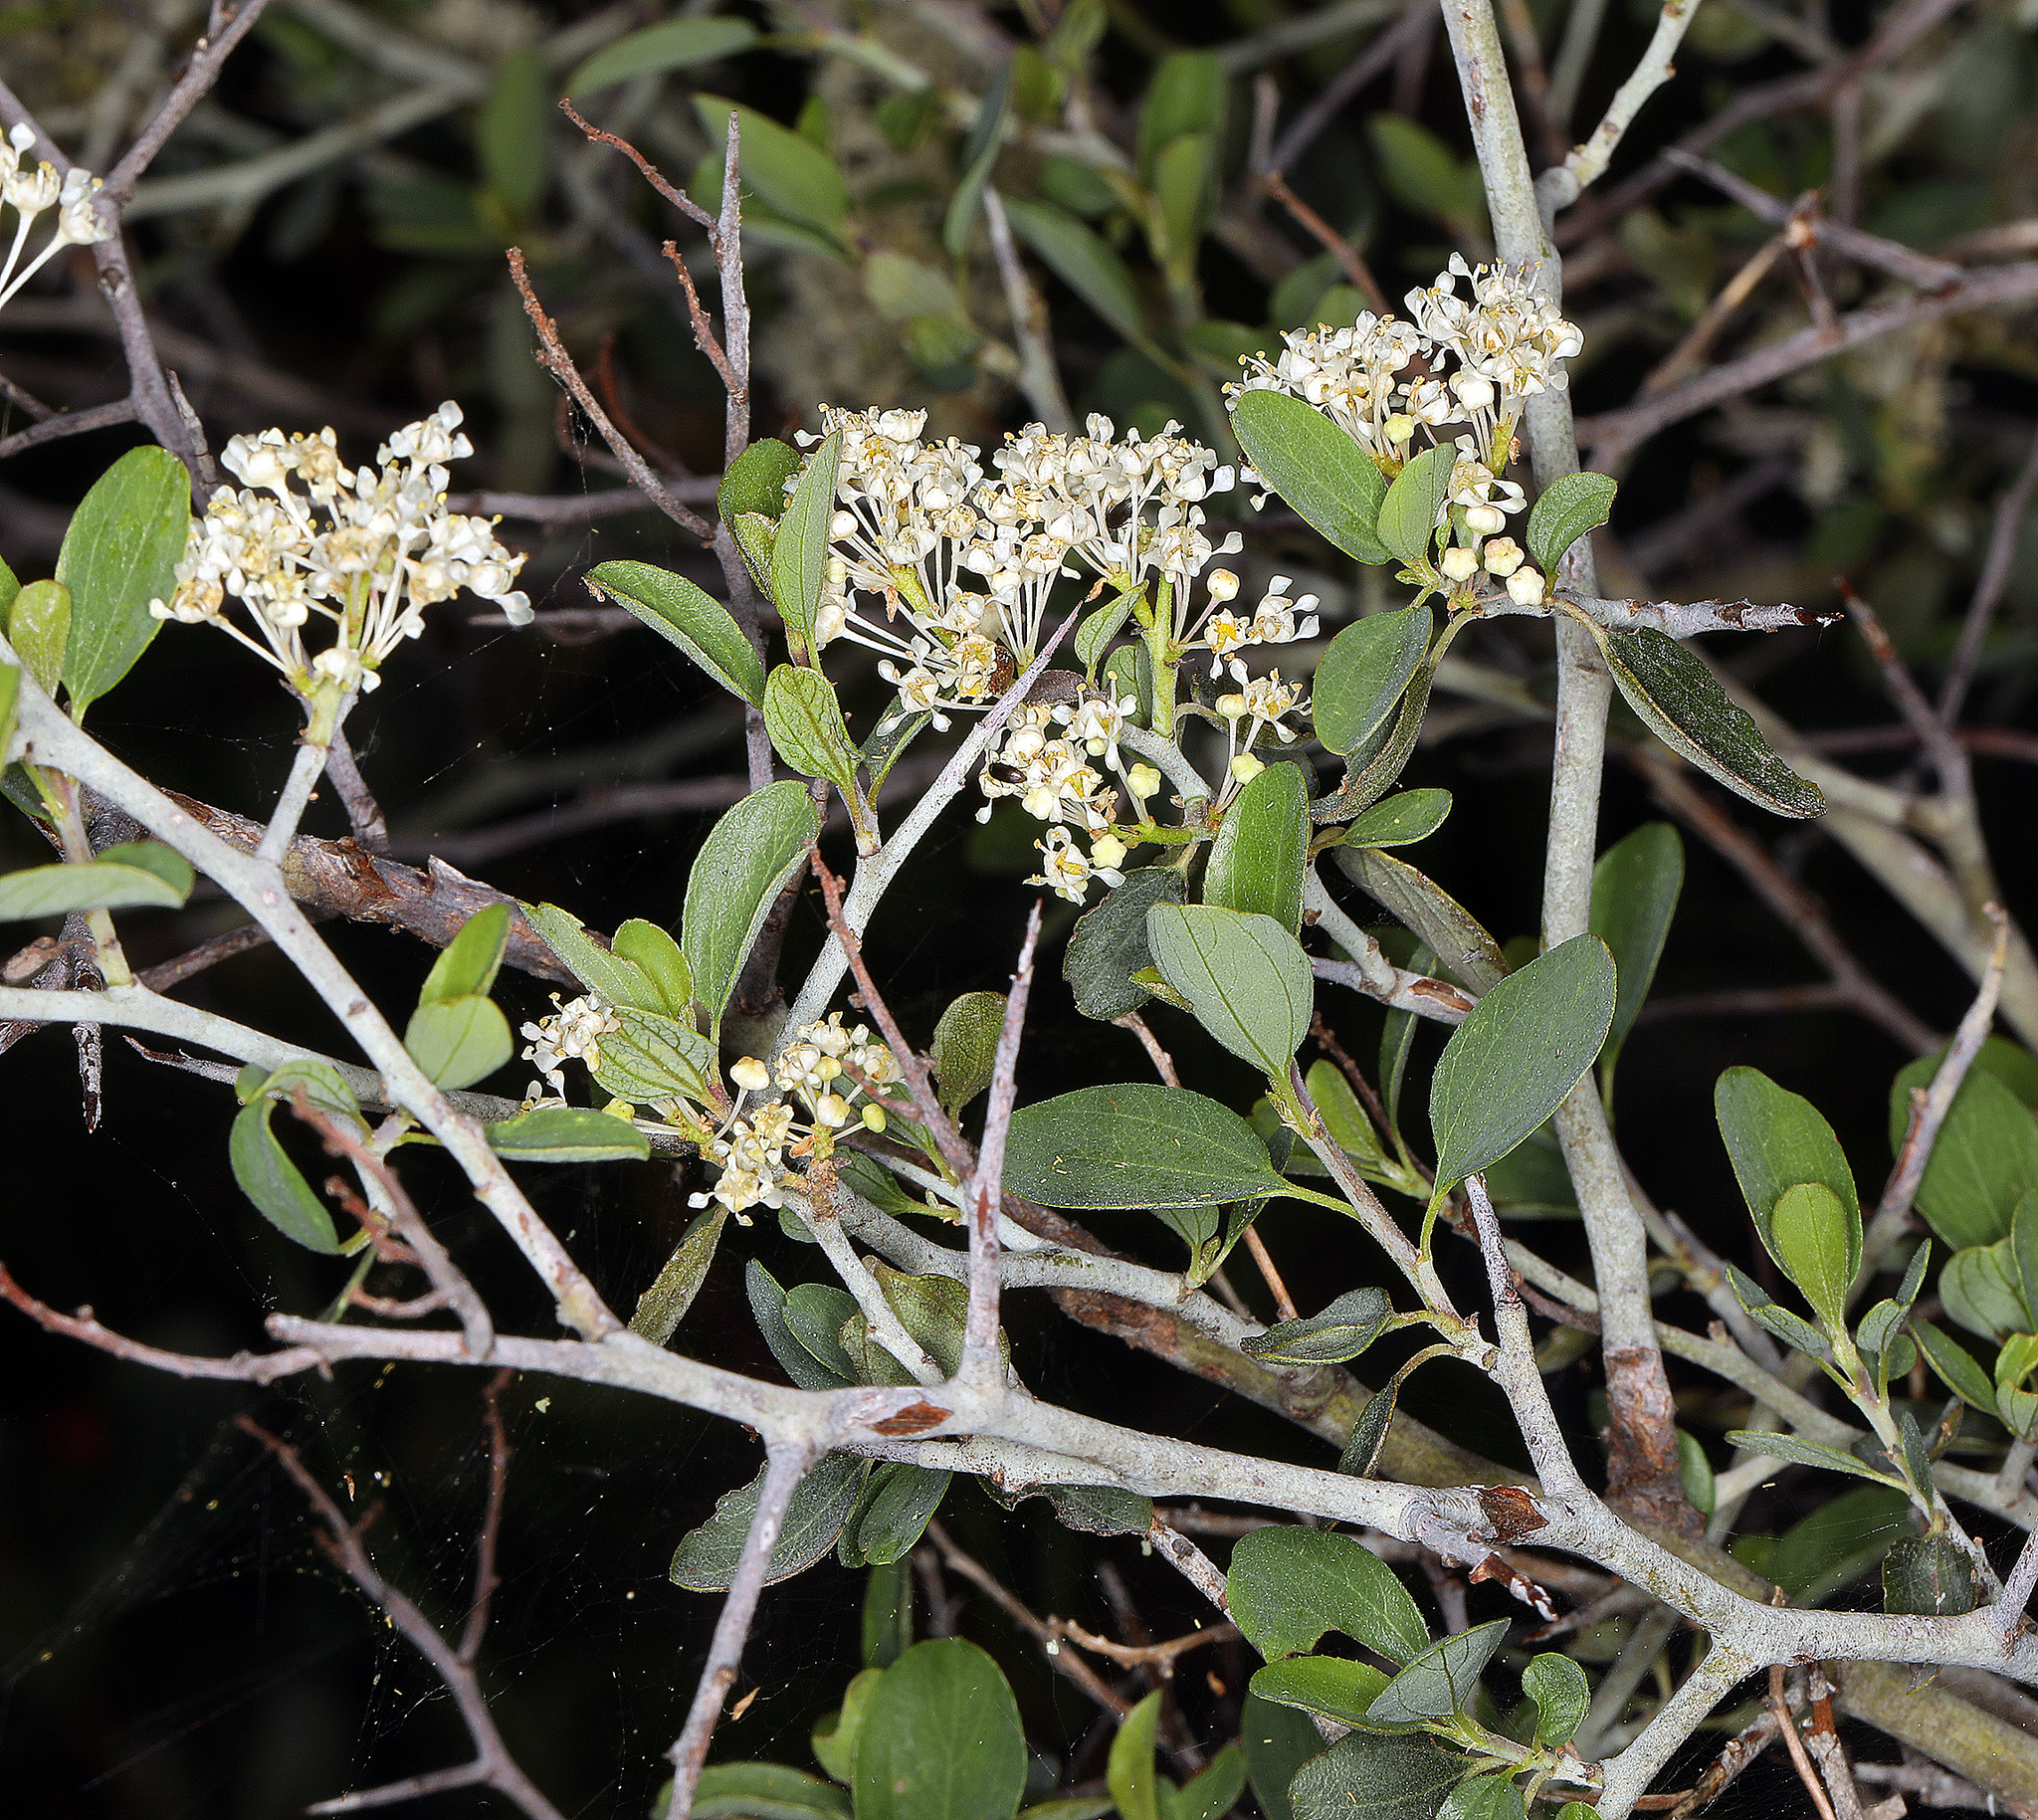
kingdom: Plantae
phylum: Tracheophyta
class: Magnoliopsida
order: Rosales
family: Rhamnaceae
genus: Ceanothus
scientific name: Ceanothus cuneatus
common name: Cuneate ceanothus
